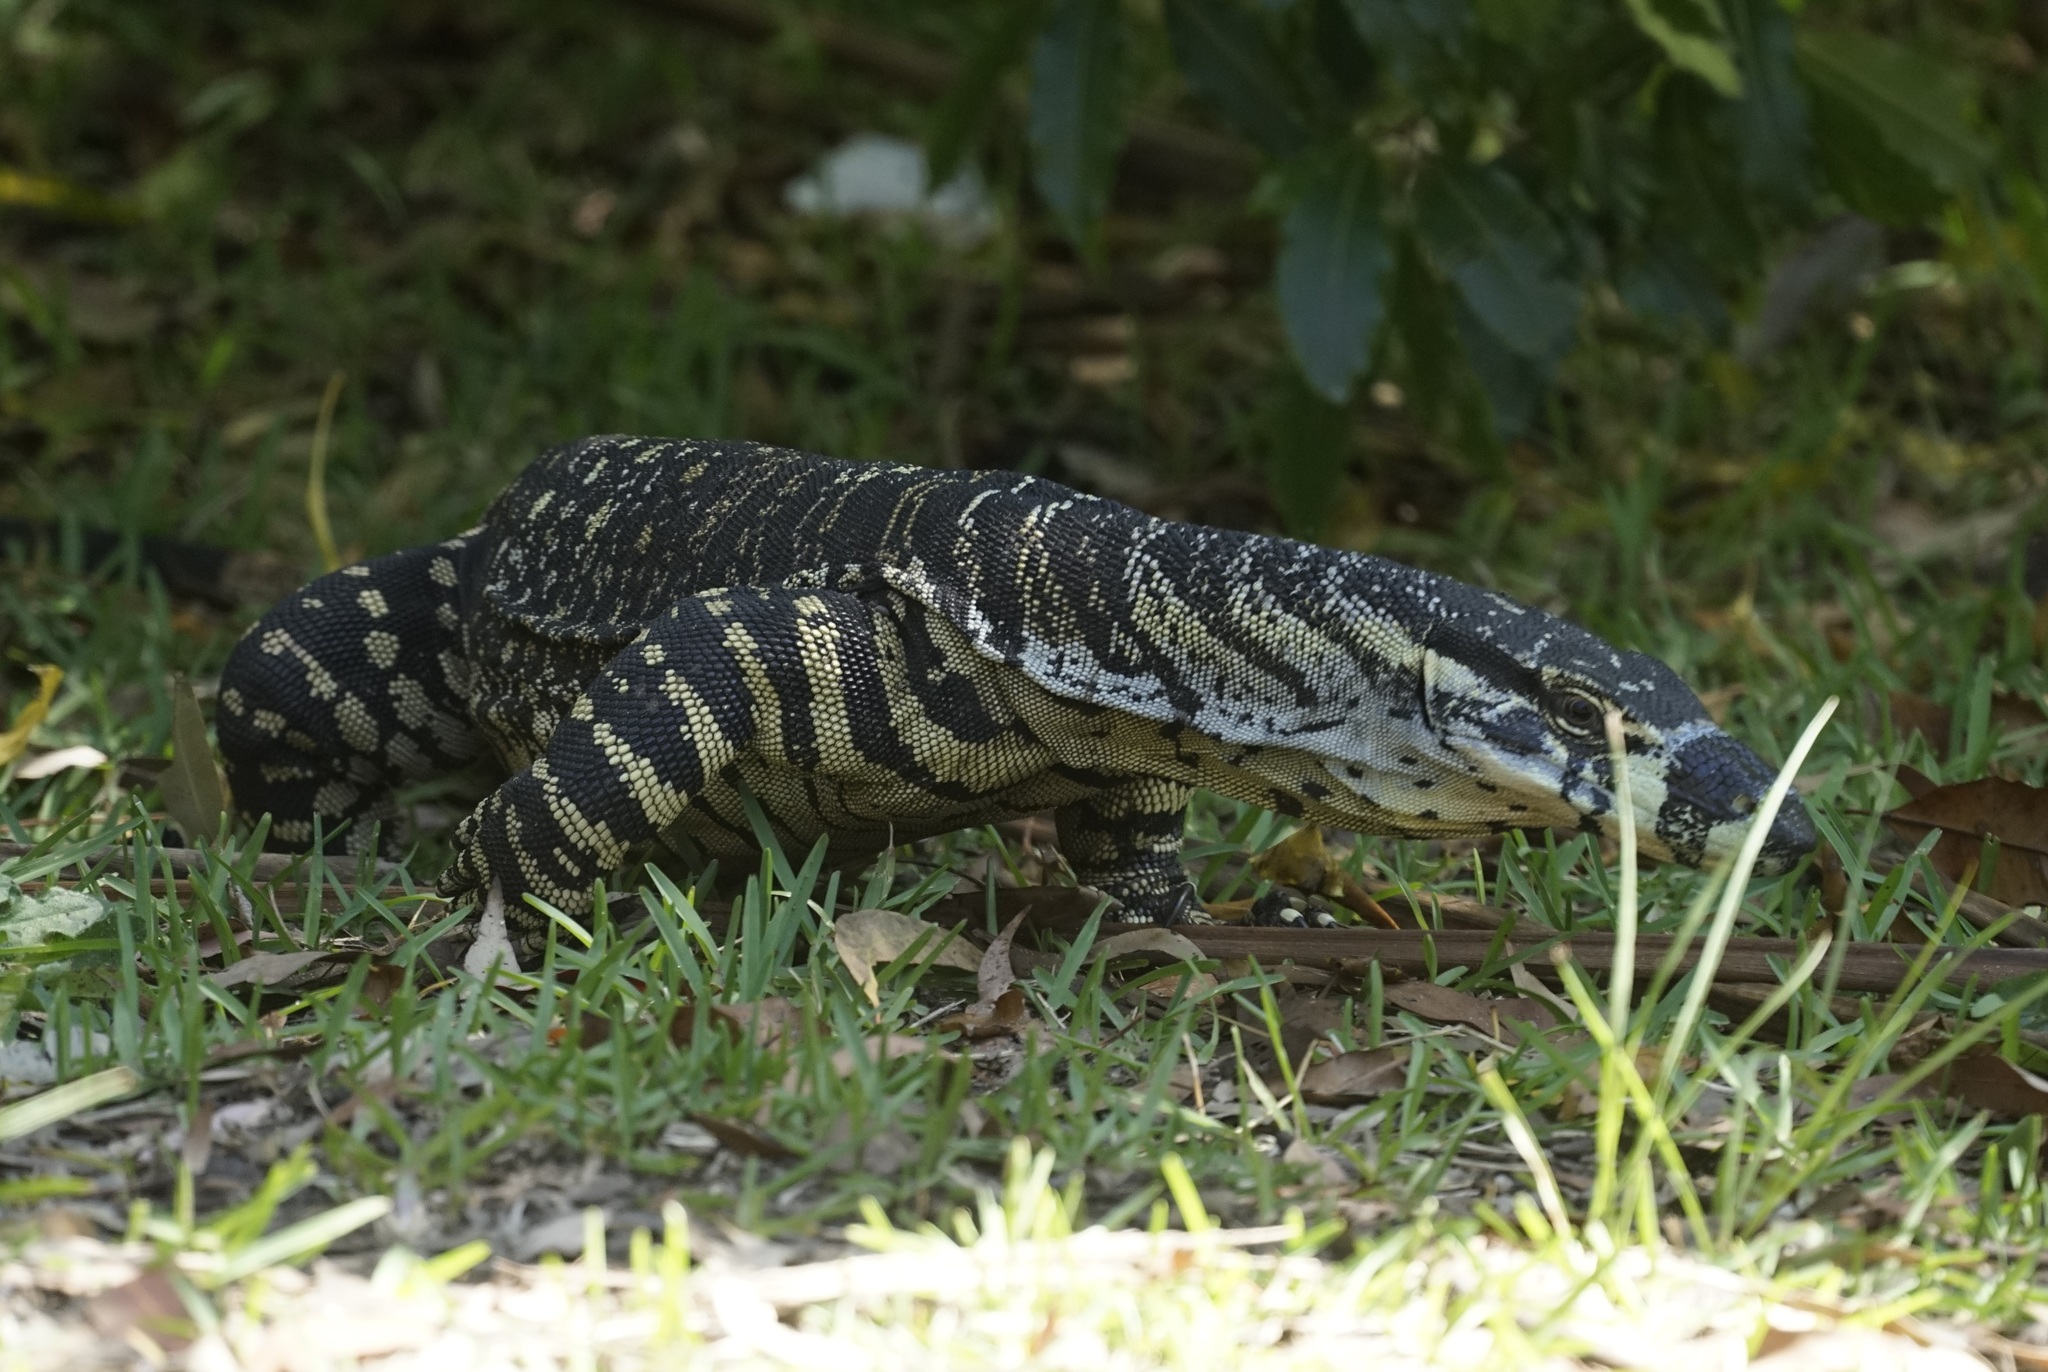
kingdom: Animalia
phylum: Chordata
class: Squamata
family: Varanidae
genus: Varanus
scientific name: Varanus varius
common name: Lace monitor
